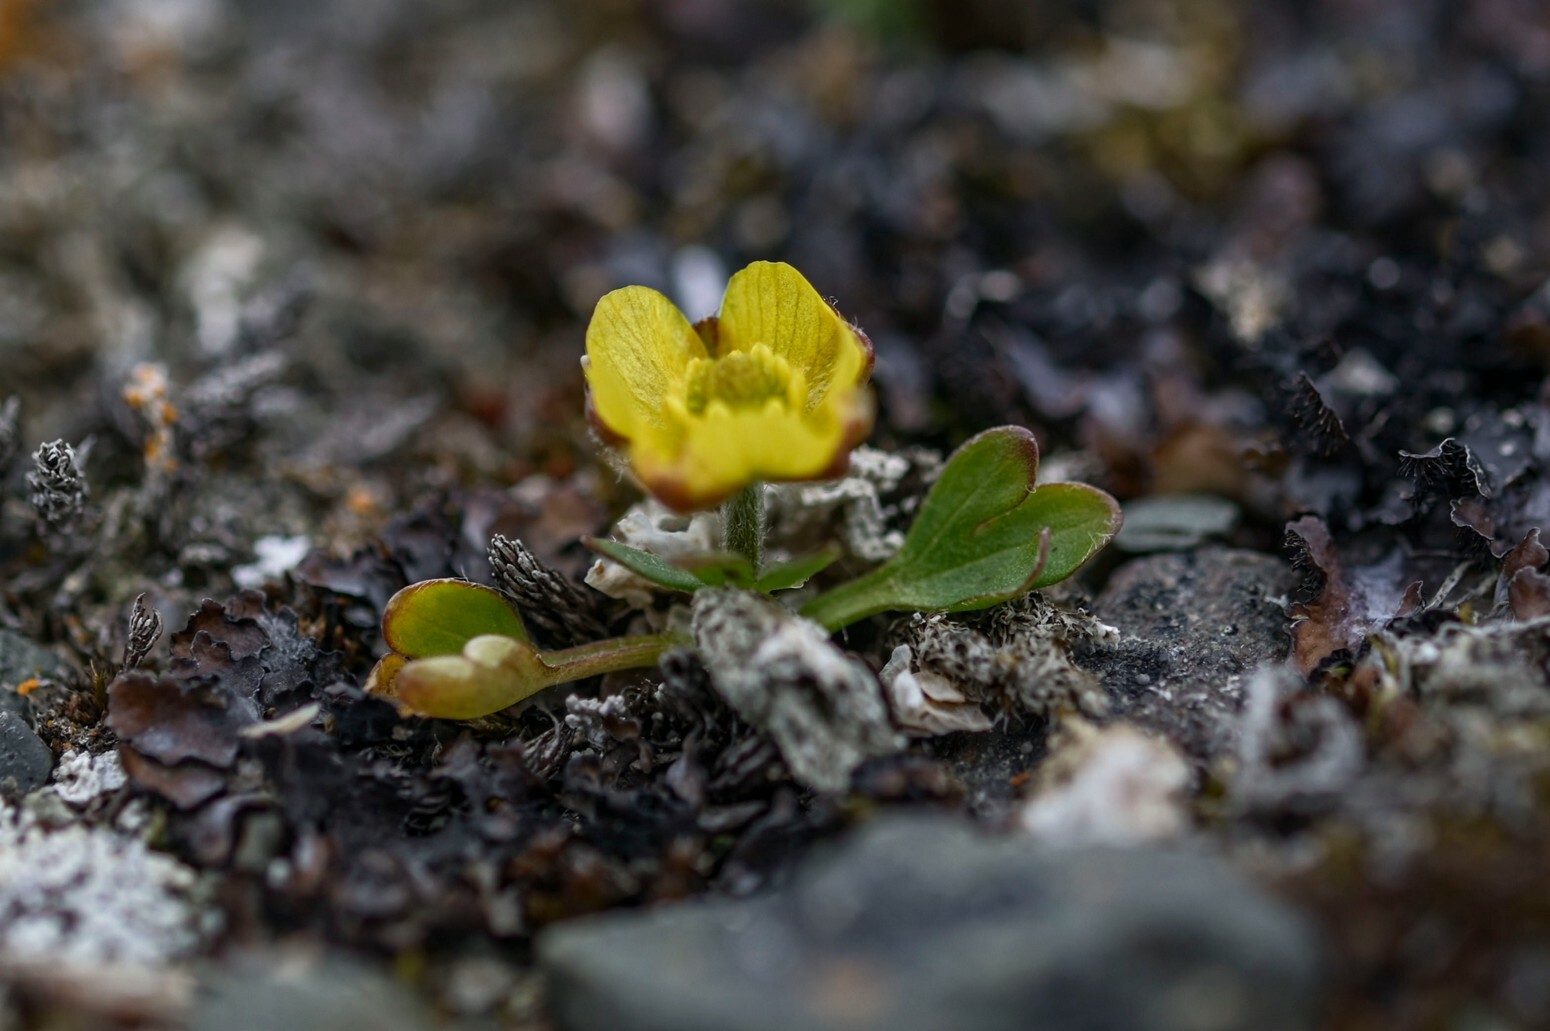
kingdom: Plantae
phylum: Tracheophyta
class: Magnoliopsida
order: Ranunculales
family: Ranunculaceae
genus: Ranunculus
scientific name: Ranunculus nivalis
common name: Snow buttercup
